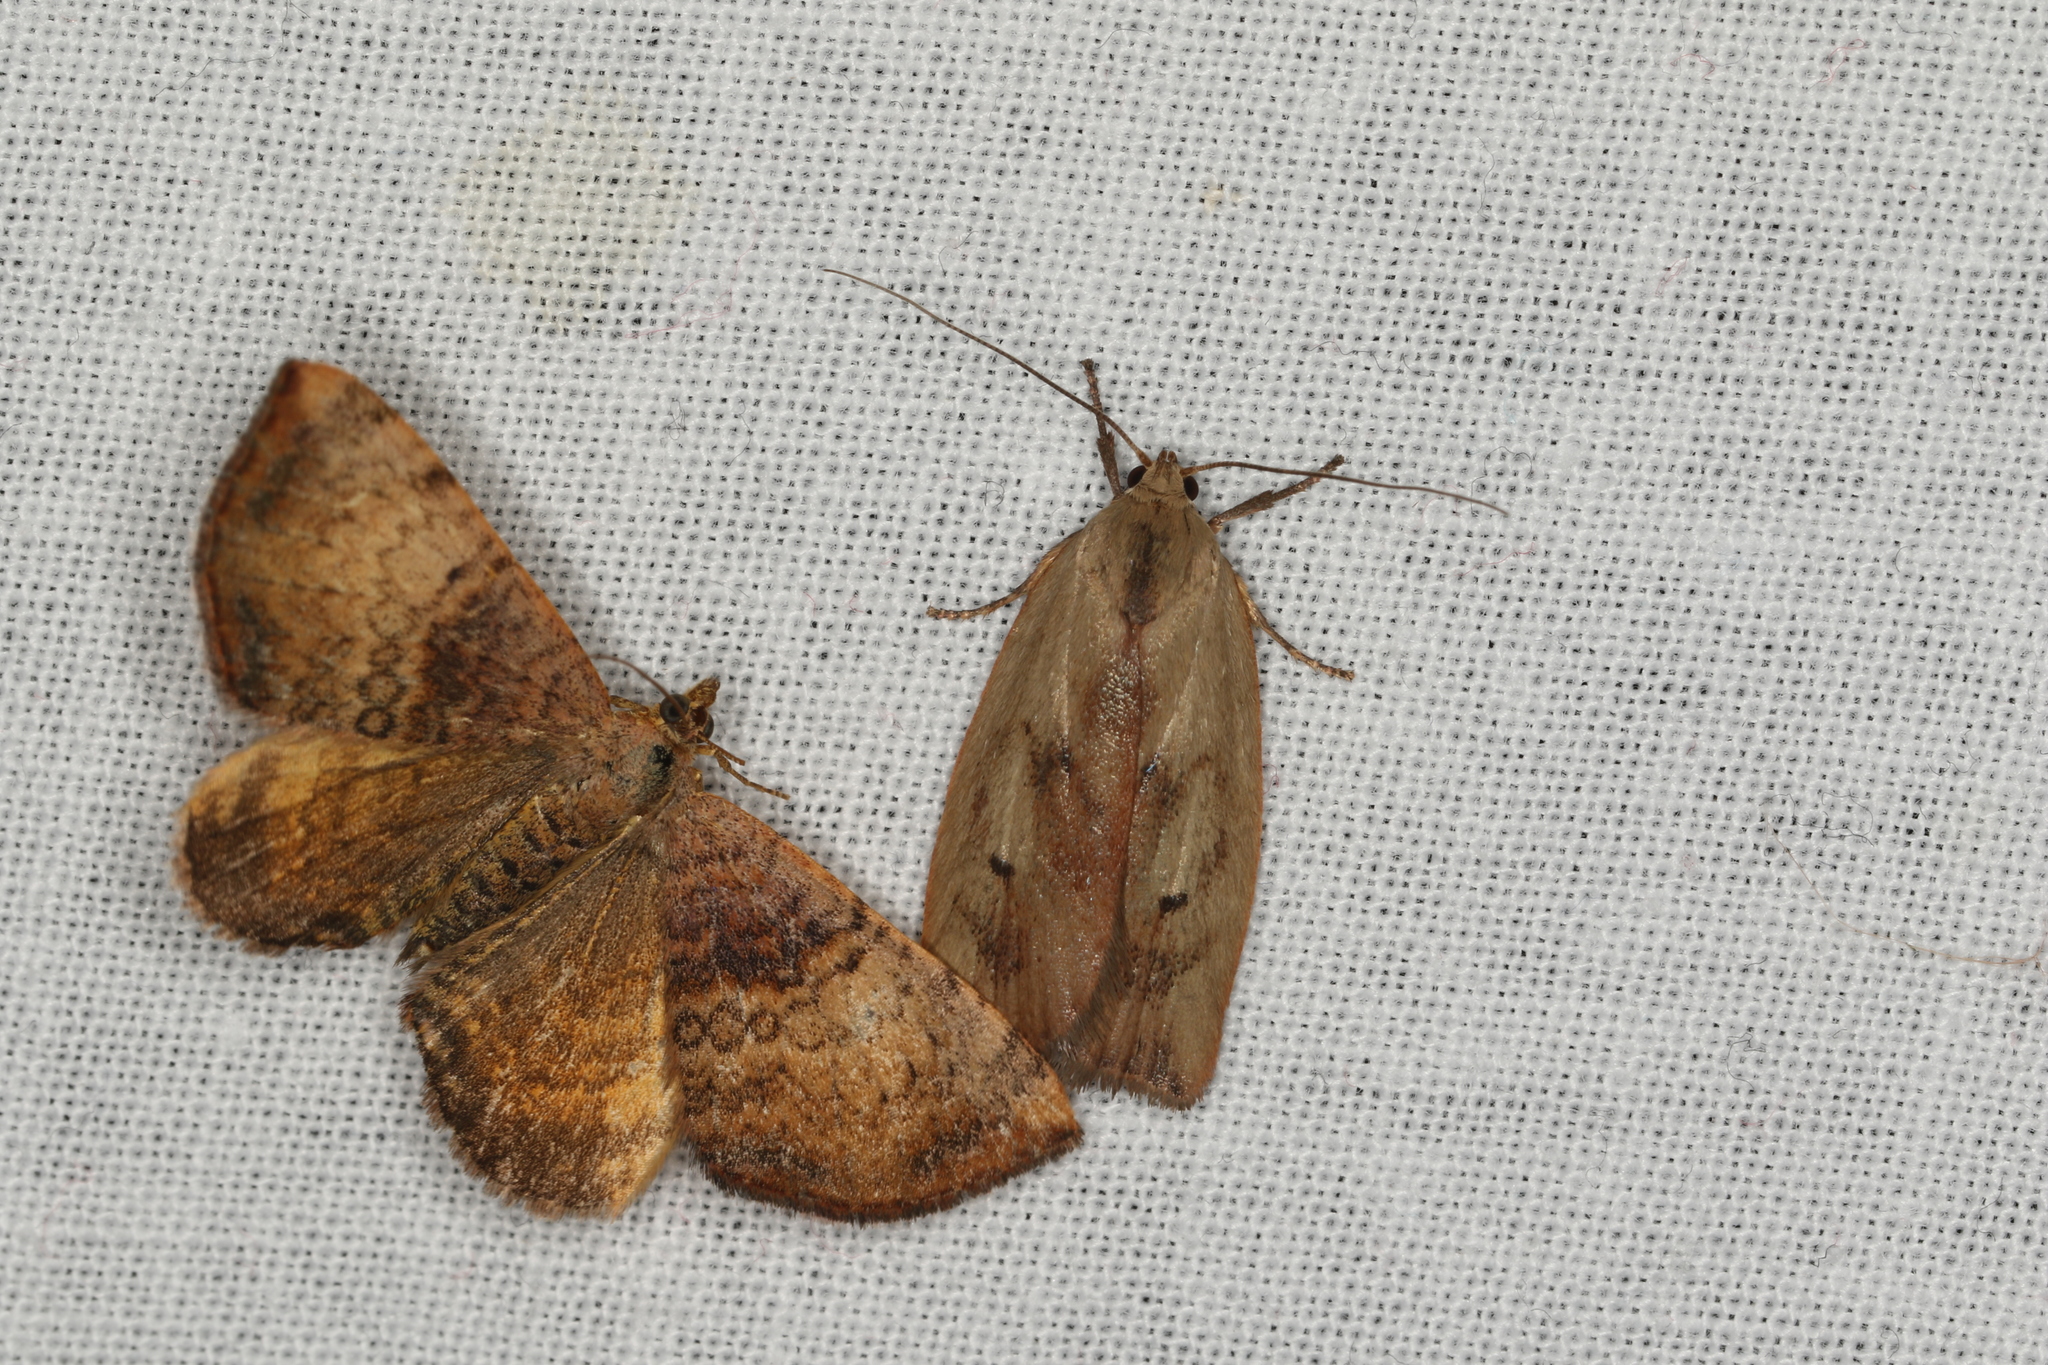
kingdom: Animalia
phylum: Arthropoda
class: Insecta
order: Lepidoptera
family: Geometridae
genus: Chrysolarentia
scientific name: Chrysolarentia mecynata
